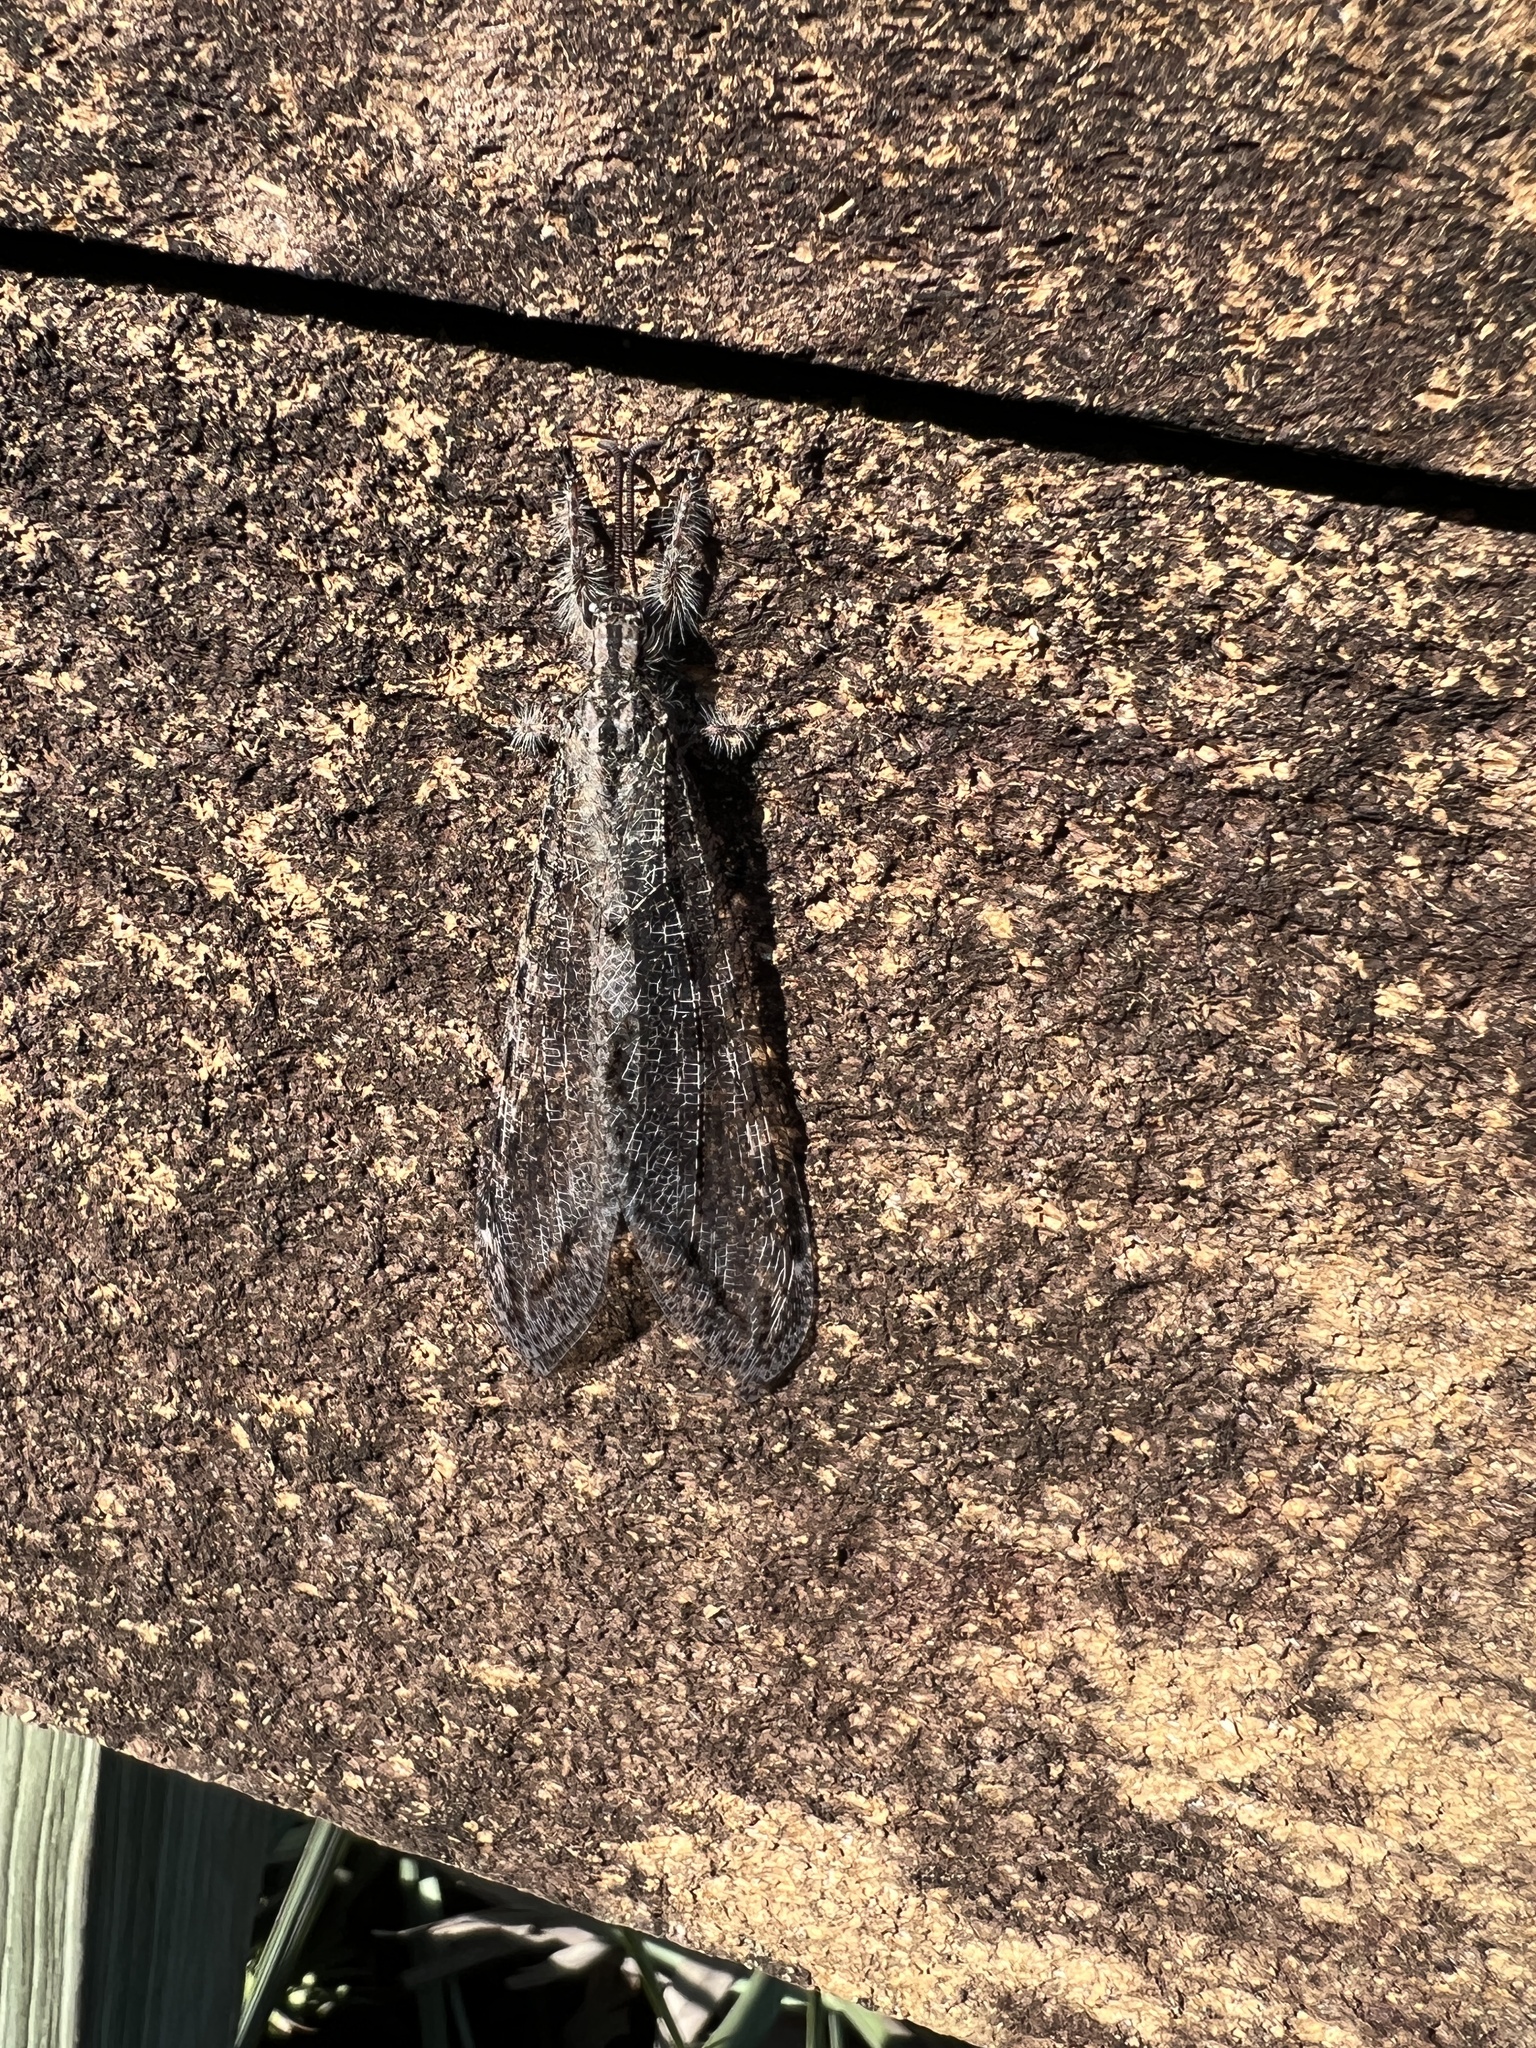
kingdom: Animalia
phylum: Arthropoda
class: Insecta
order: Neuroptera
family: Myrmeleontidae
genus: Vella
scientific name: Vella americana
